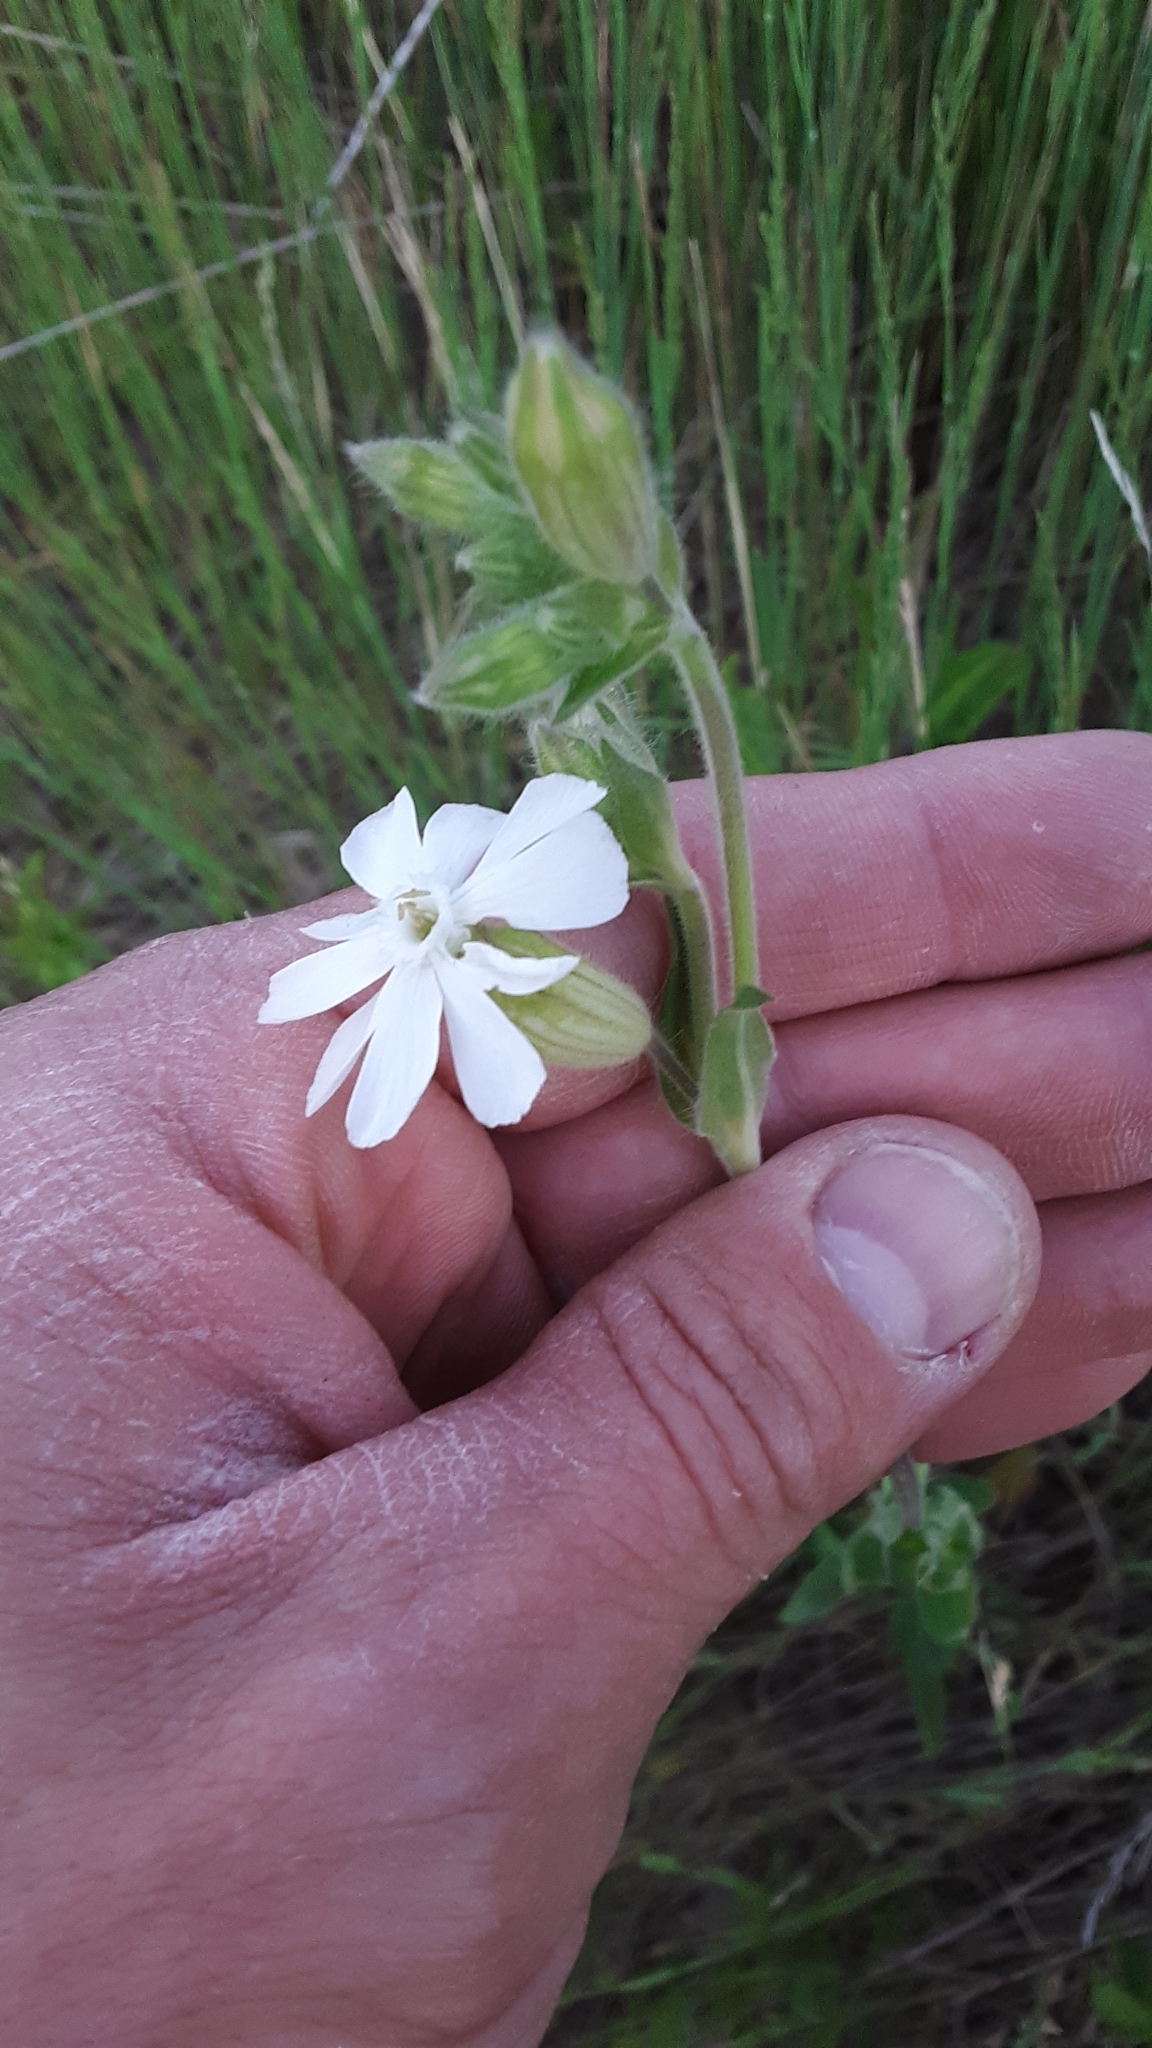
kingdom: Plantae
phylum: Tracheophyta
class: Magnoliopsida
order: Caryophyllales
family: Caryophyllaceae
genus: Silene
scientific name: Silene latifolia
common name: White campion
